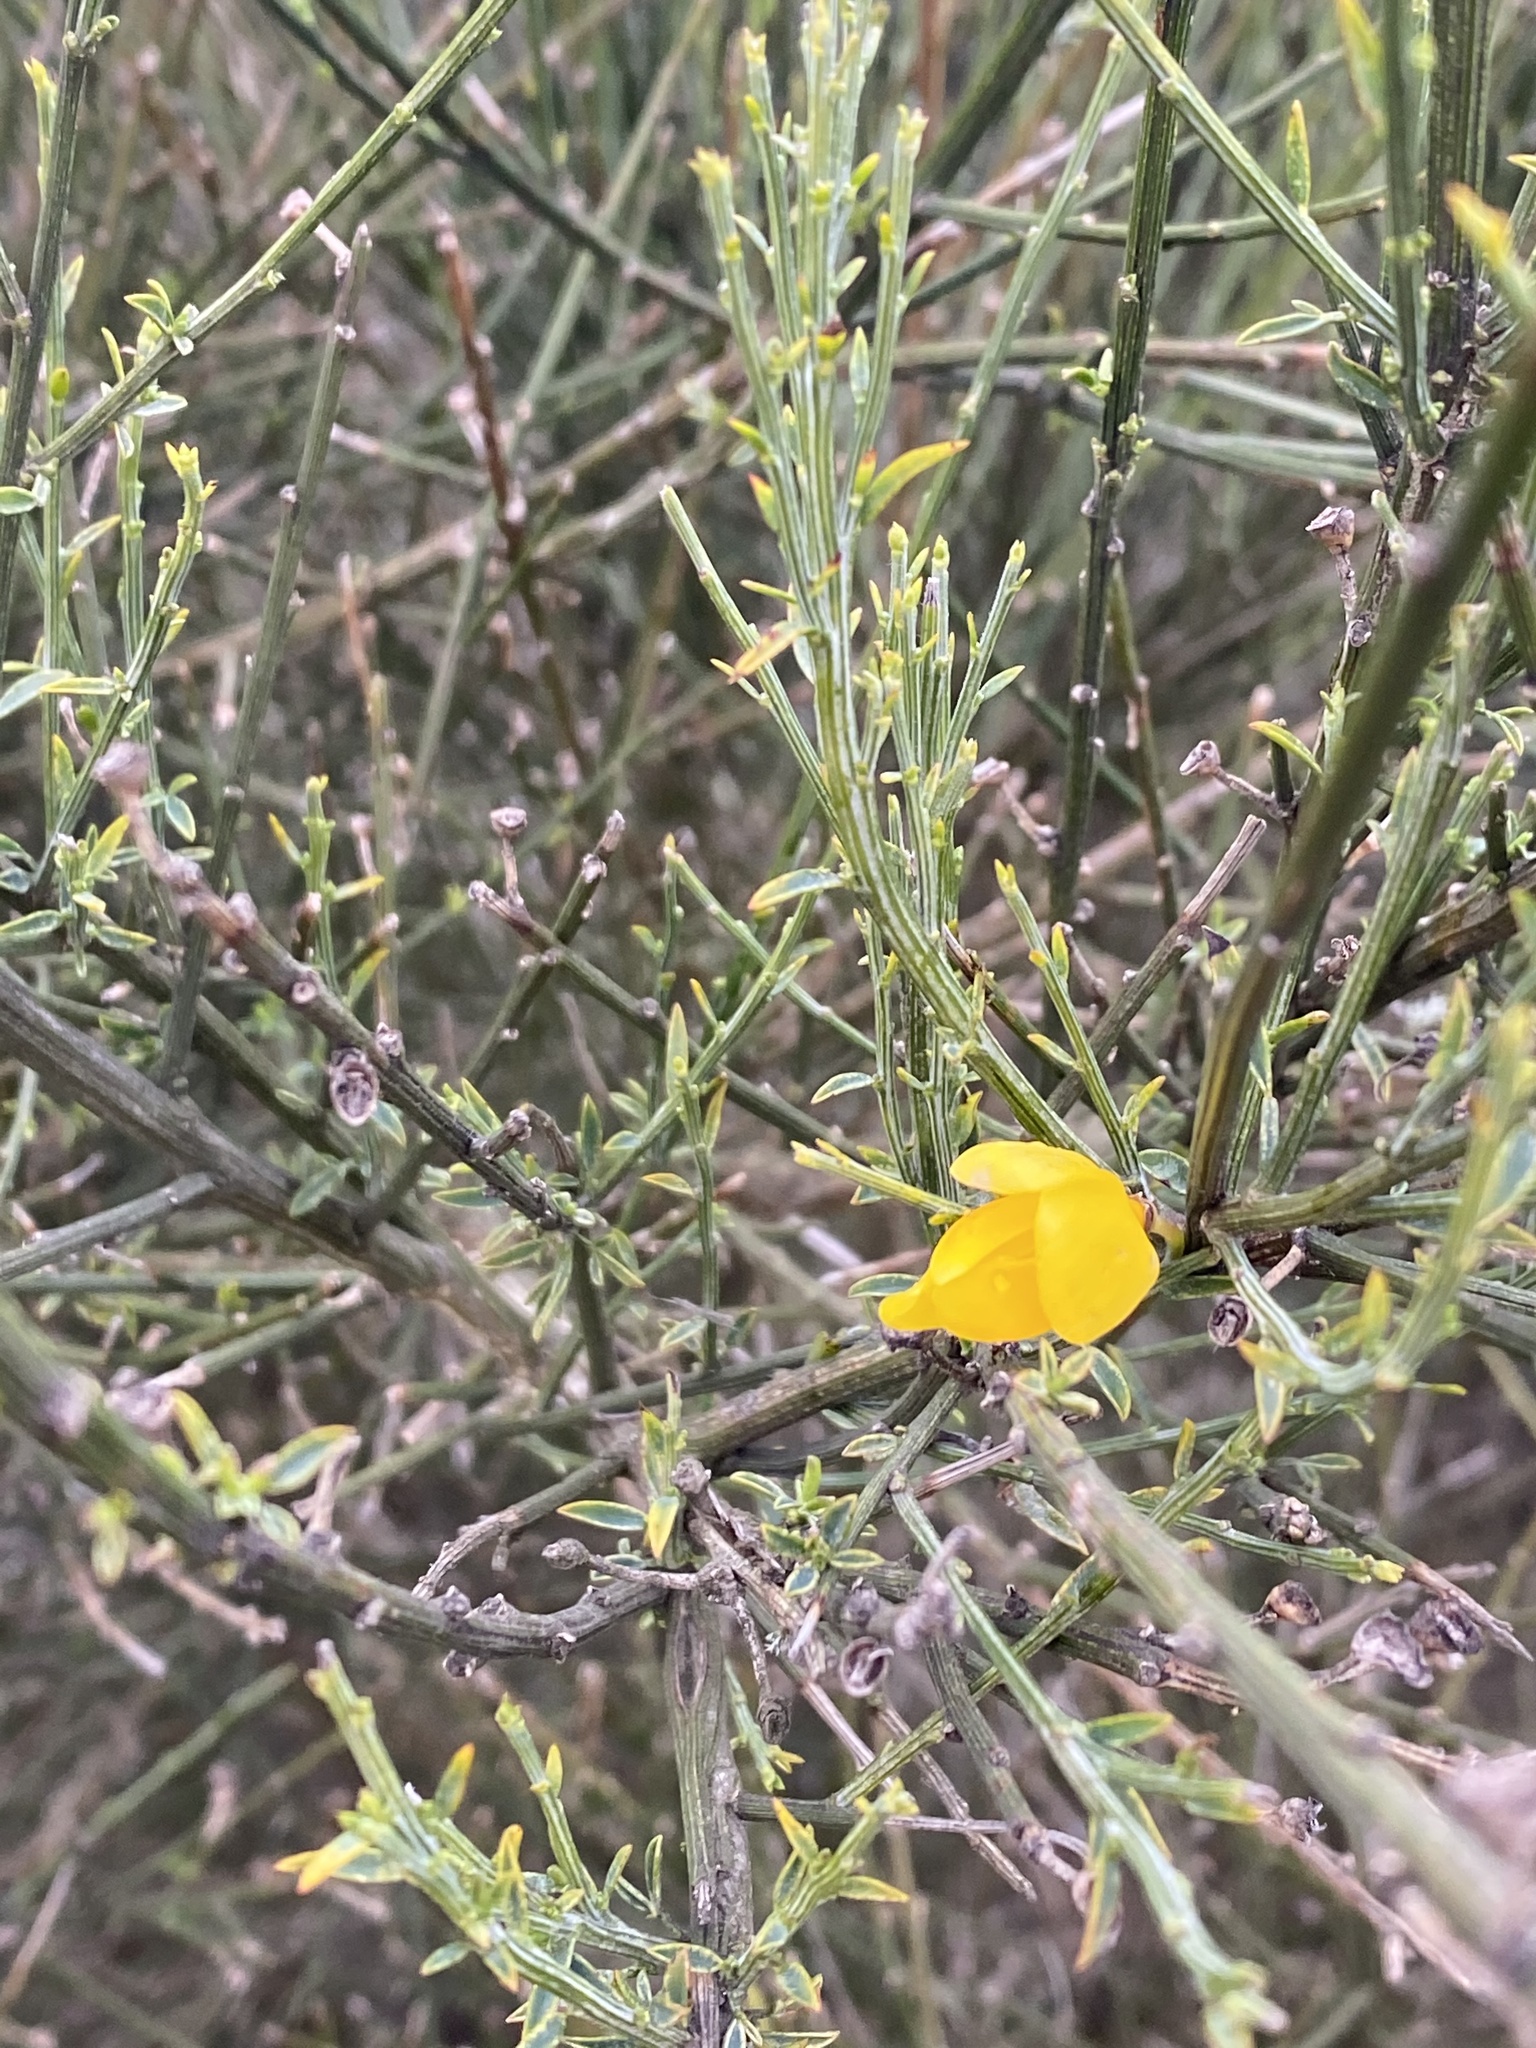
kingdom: Plantae
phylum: Tracheophyta
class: Magnoliopsida
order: Fabales
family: Fabaceae
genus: Cytisus
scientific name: Cytisus scoparius
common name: Scotch broom
